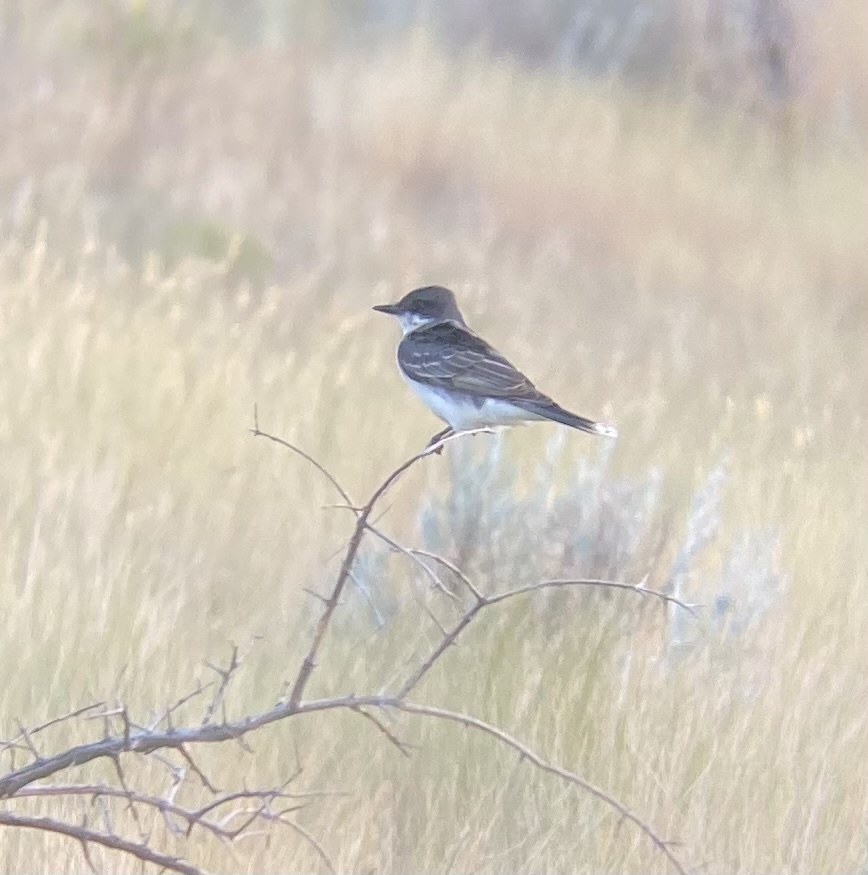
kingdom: Animalia
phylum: Chordata
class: Aves
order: Passeriformes
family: Tyrannidae
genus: Tyrannus
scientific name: Tyrannus tyrannus
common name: Eastern kingbird
